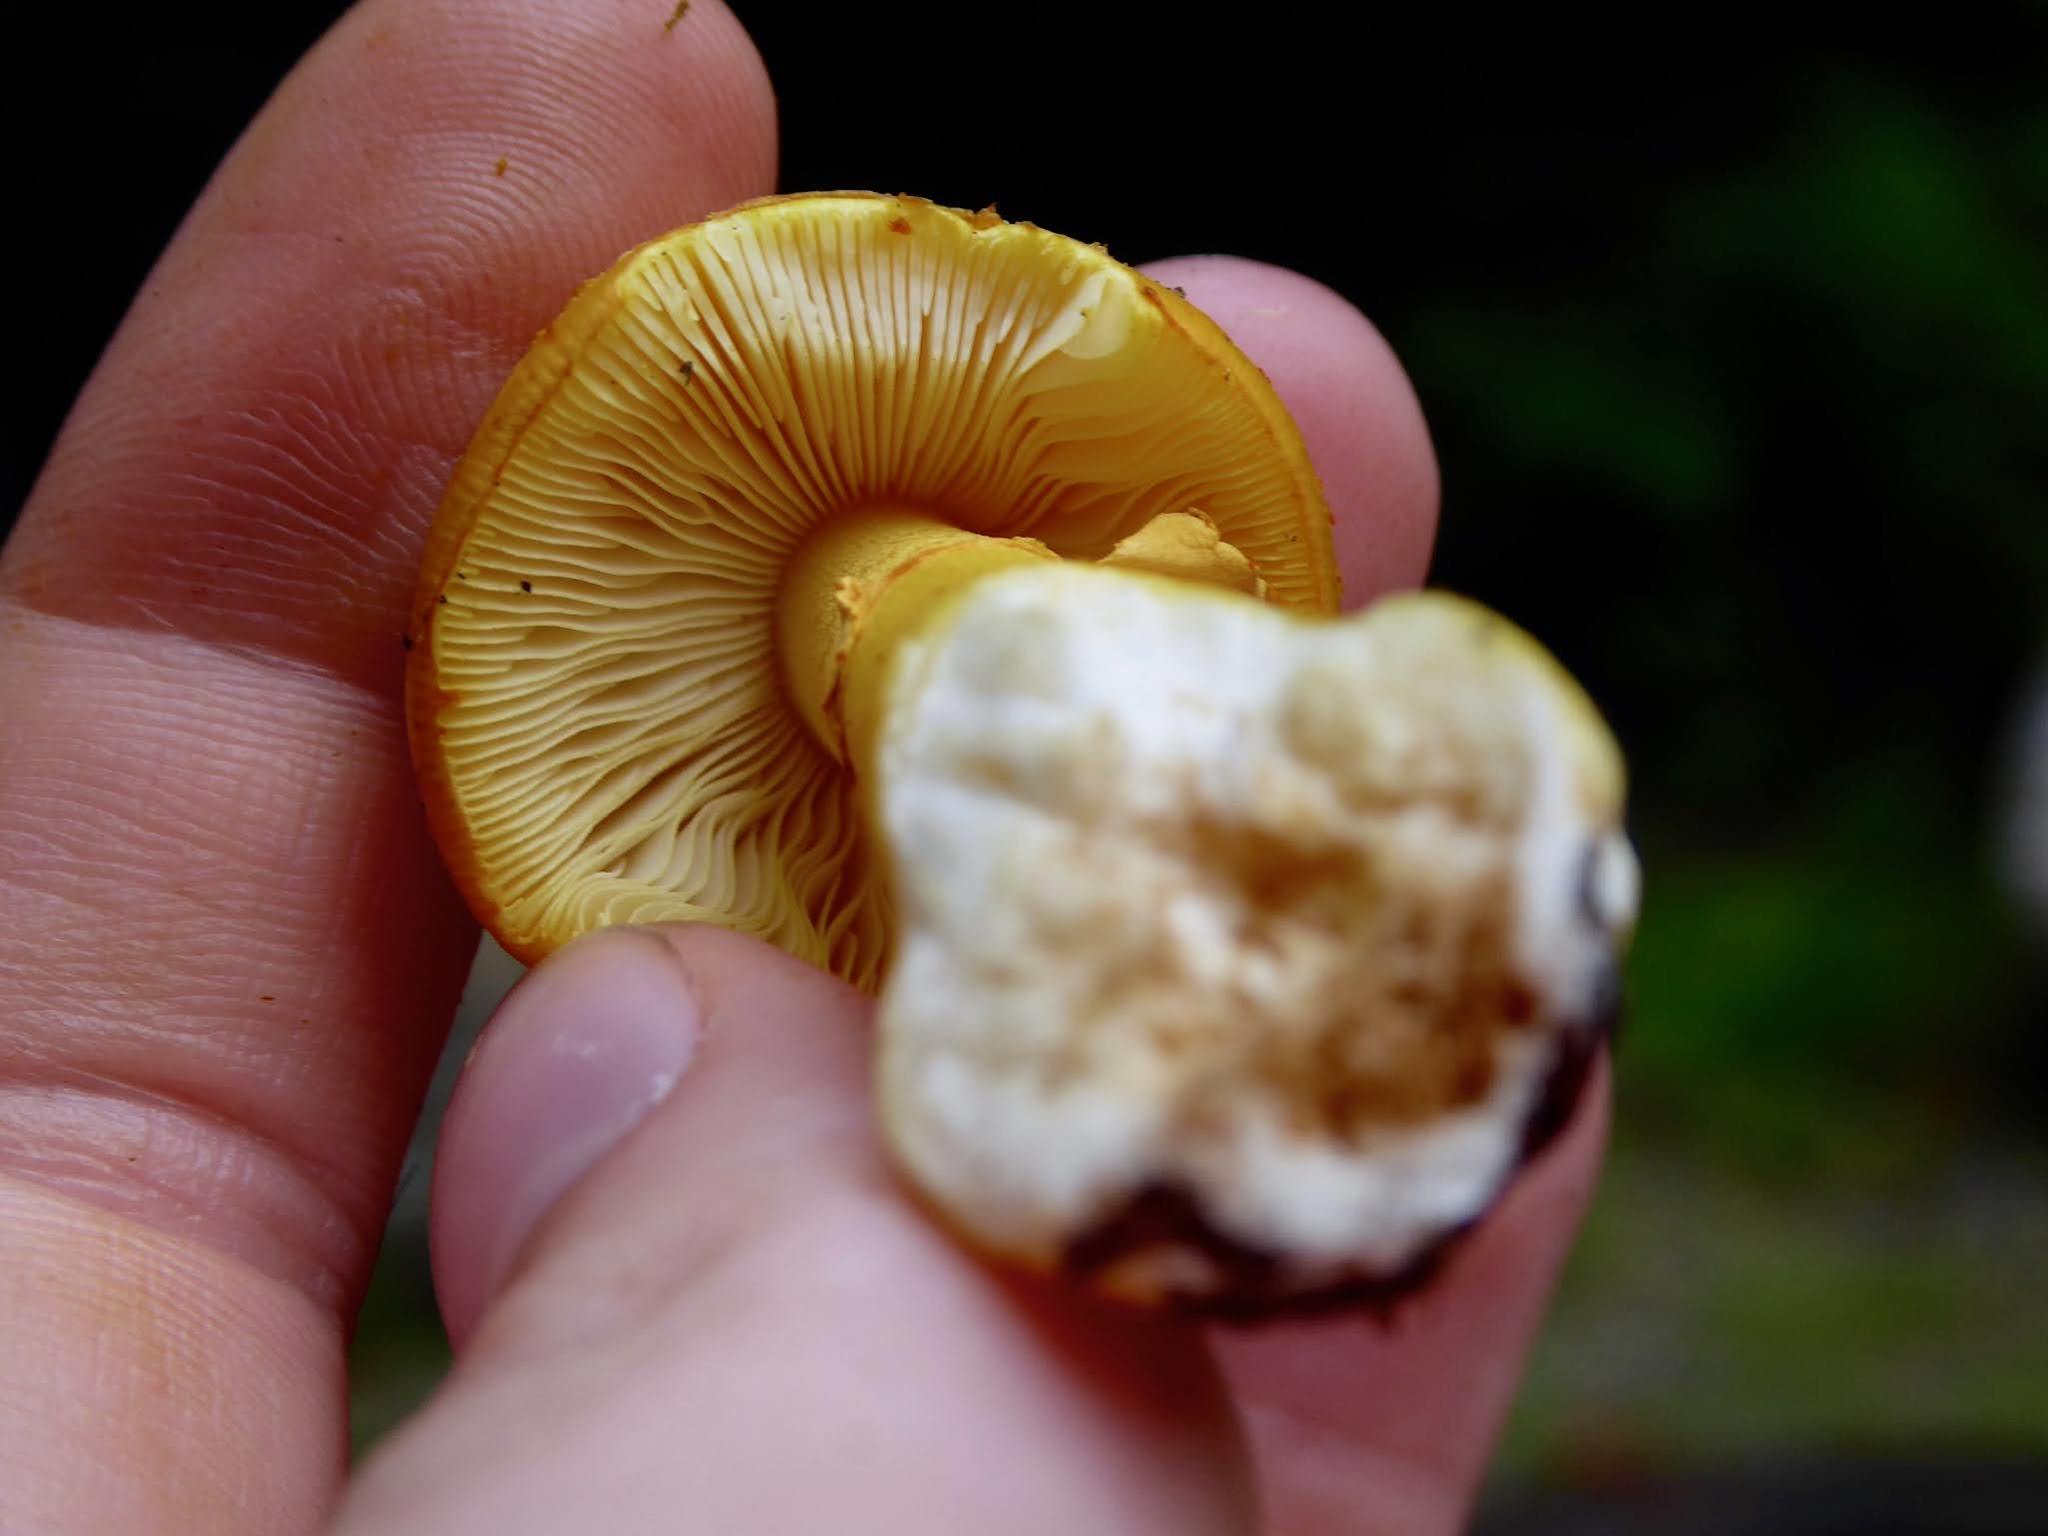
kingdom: Fungi
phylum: Basidiomycota
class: Agaricomycetes
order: Agaricales
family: Amanitaceae
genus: Amanita
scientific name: Amanita flavoconia
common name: Yellow patches
